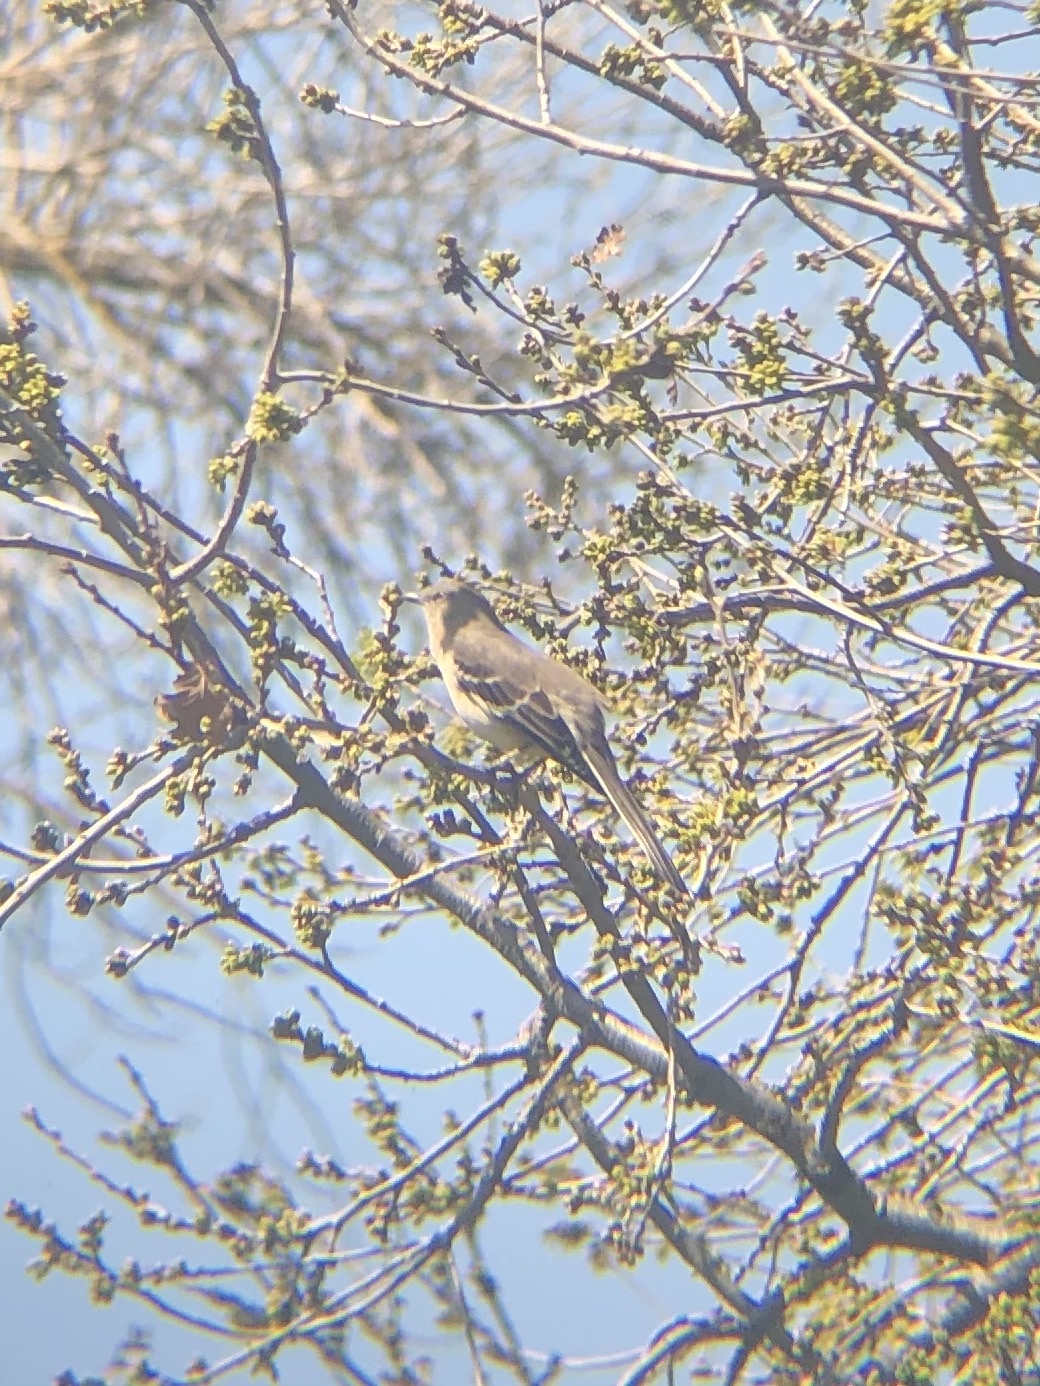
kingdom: Animalia
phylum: Chordata
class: Aves
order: Passeriformes
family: Mimidae
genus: Mimus
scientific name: Mimus polyglottos
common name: Northern mockingbird
